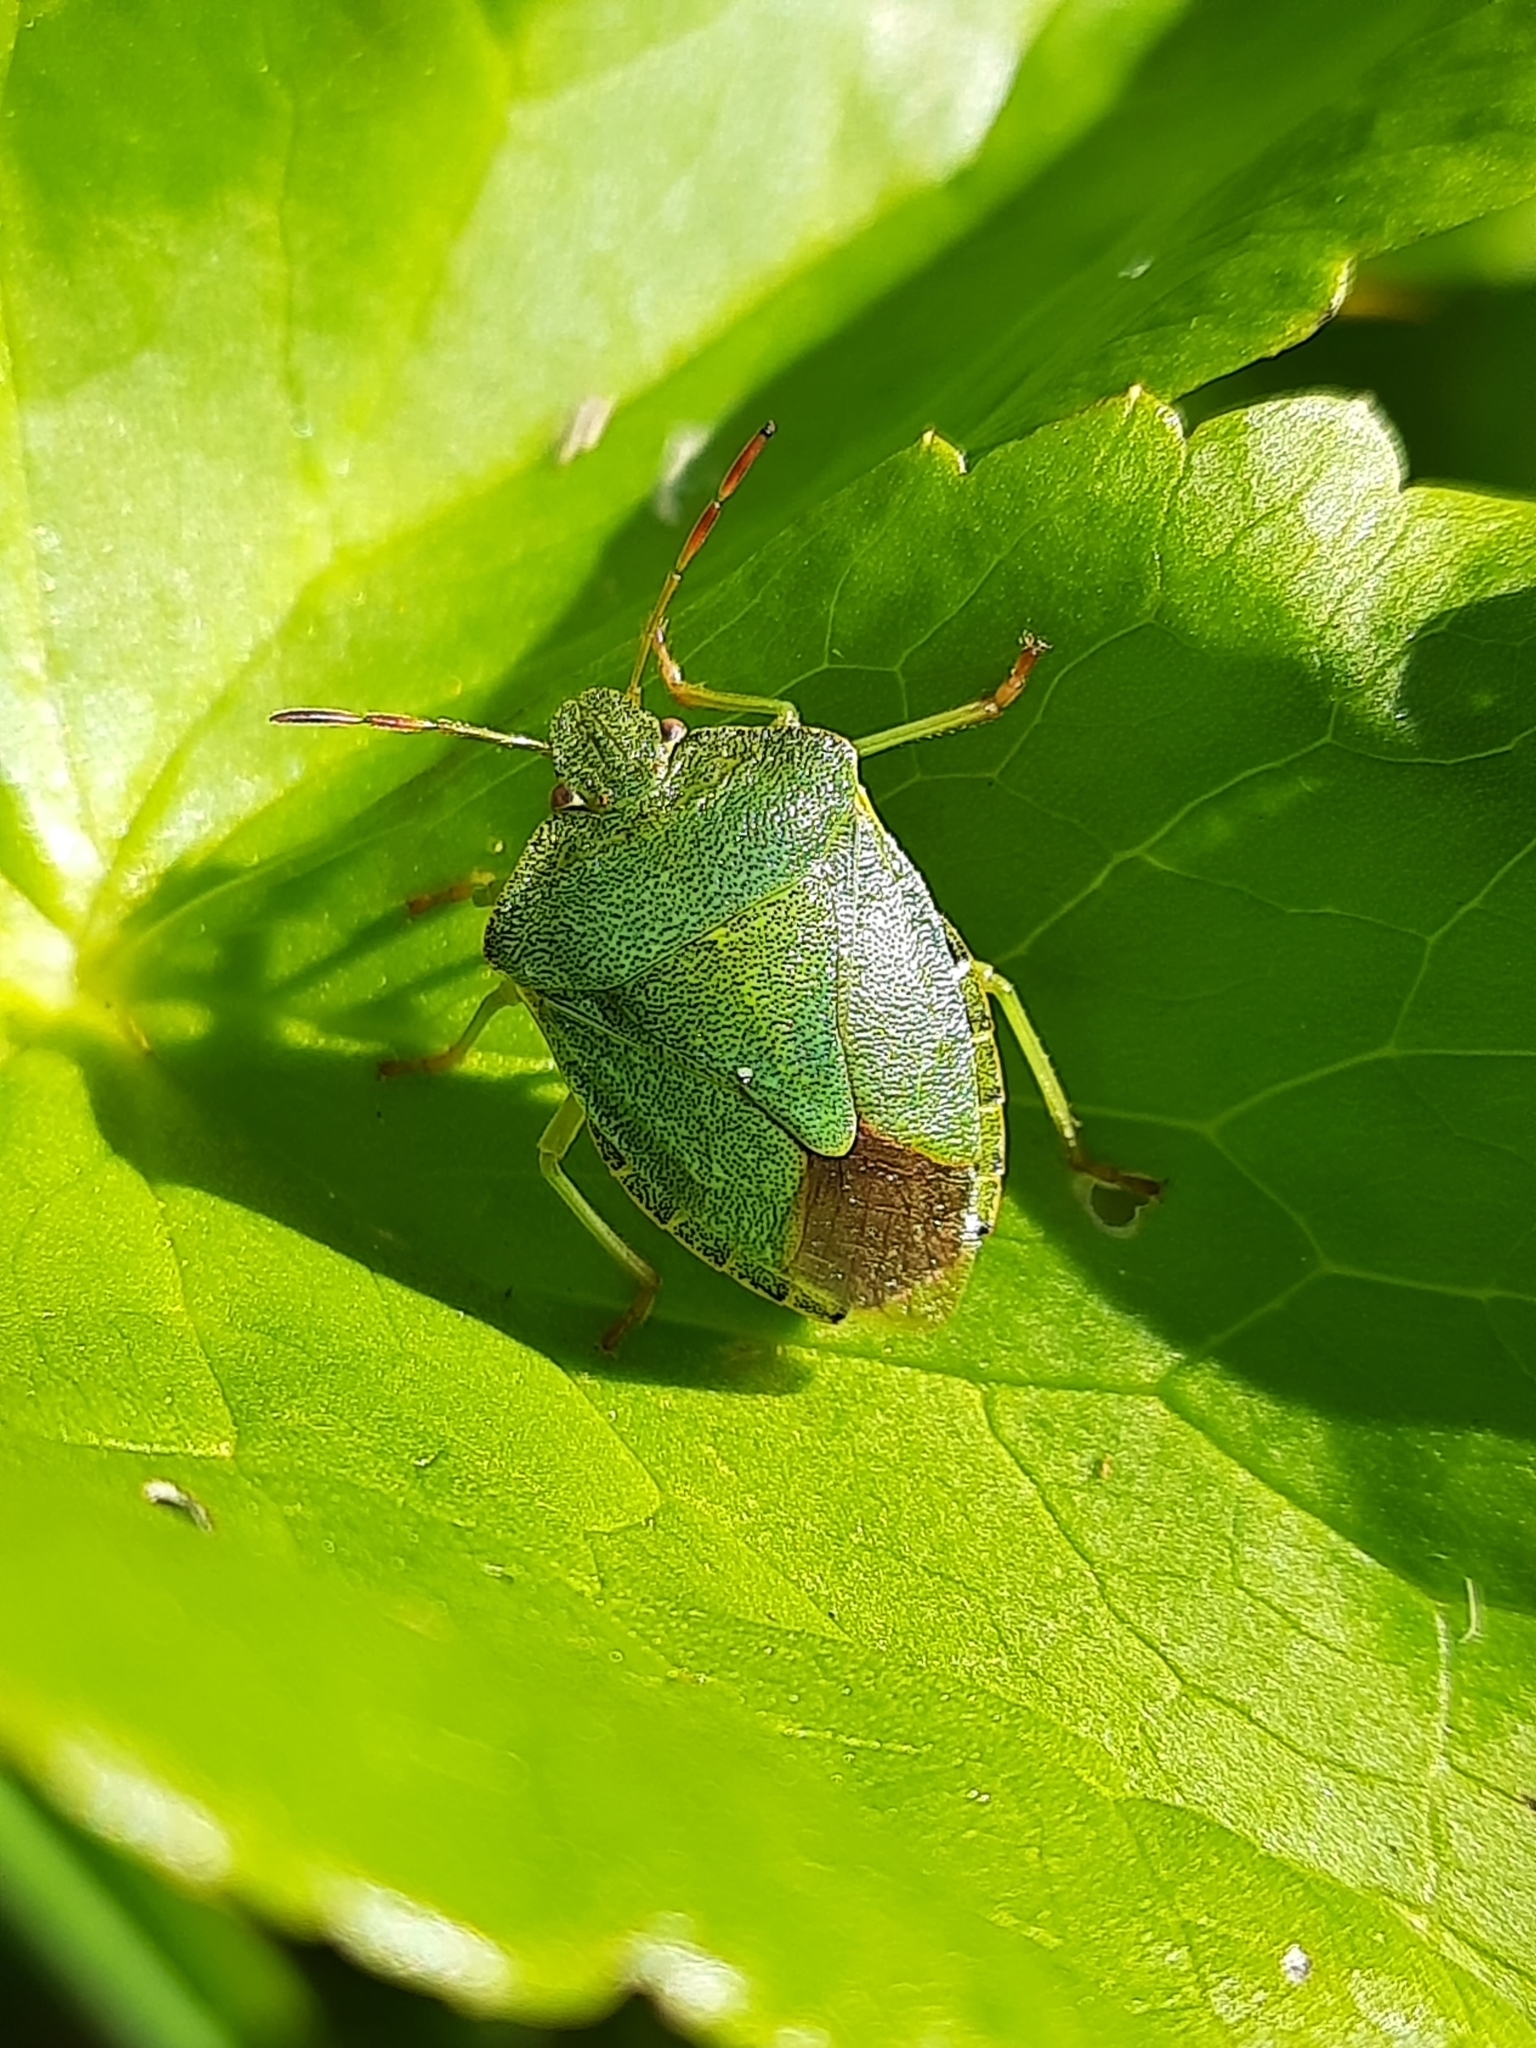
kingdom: Animalia
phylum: Arthropoda
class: Insecta
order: Hemiptera
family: Pentatomidae
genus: Palomena
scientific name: Palomena prasina
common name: Green shieldbug
